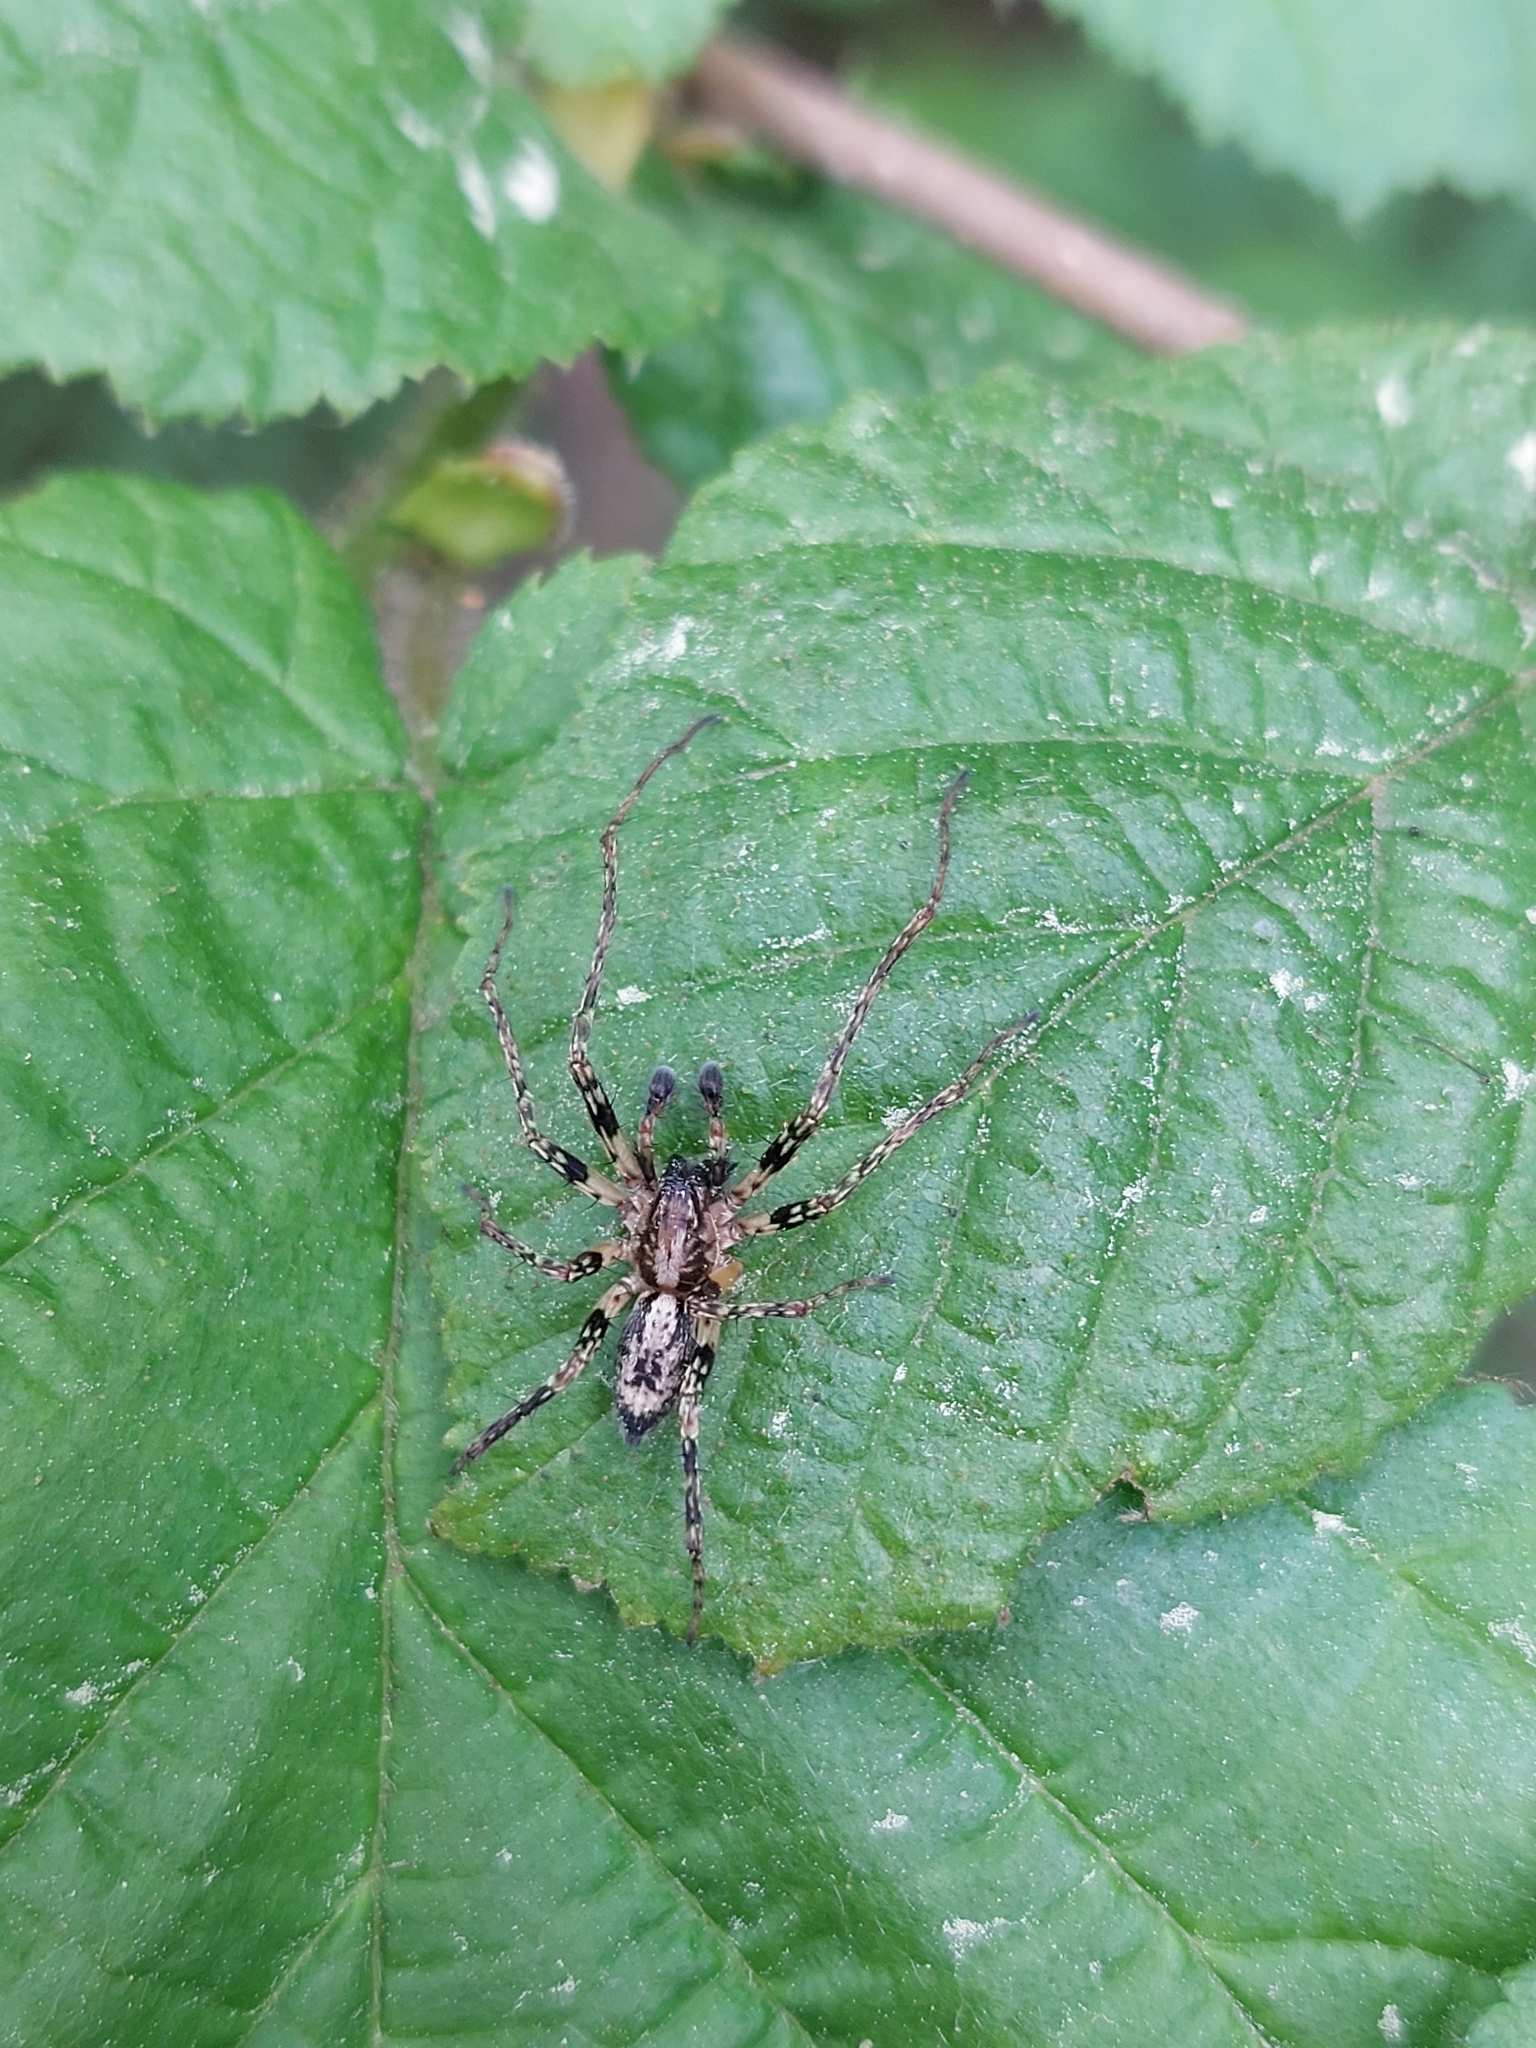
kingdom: Animalia
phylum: Arthropoda
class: Arachnida
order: Araneae
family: Anyphaenidae
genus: Anyphaena
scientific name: Anyphaena accentuata
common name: Buzzing spider
